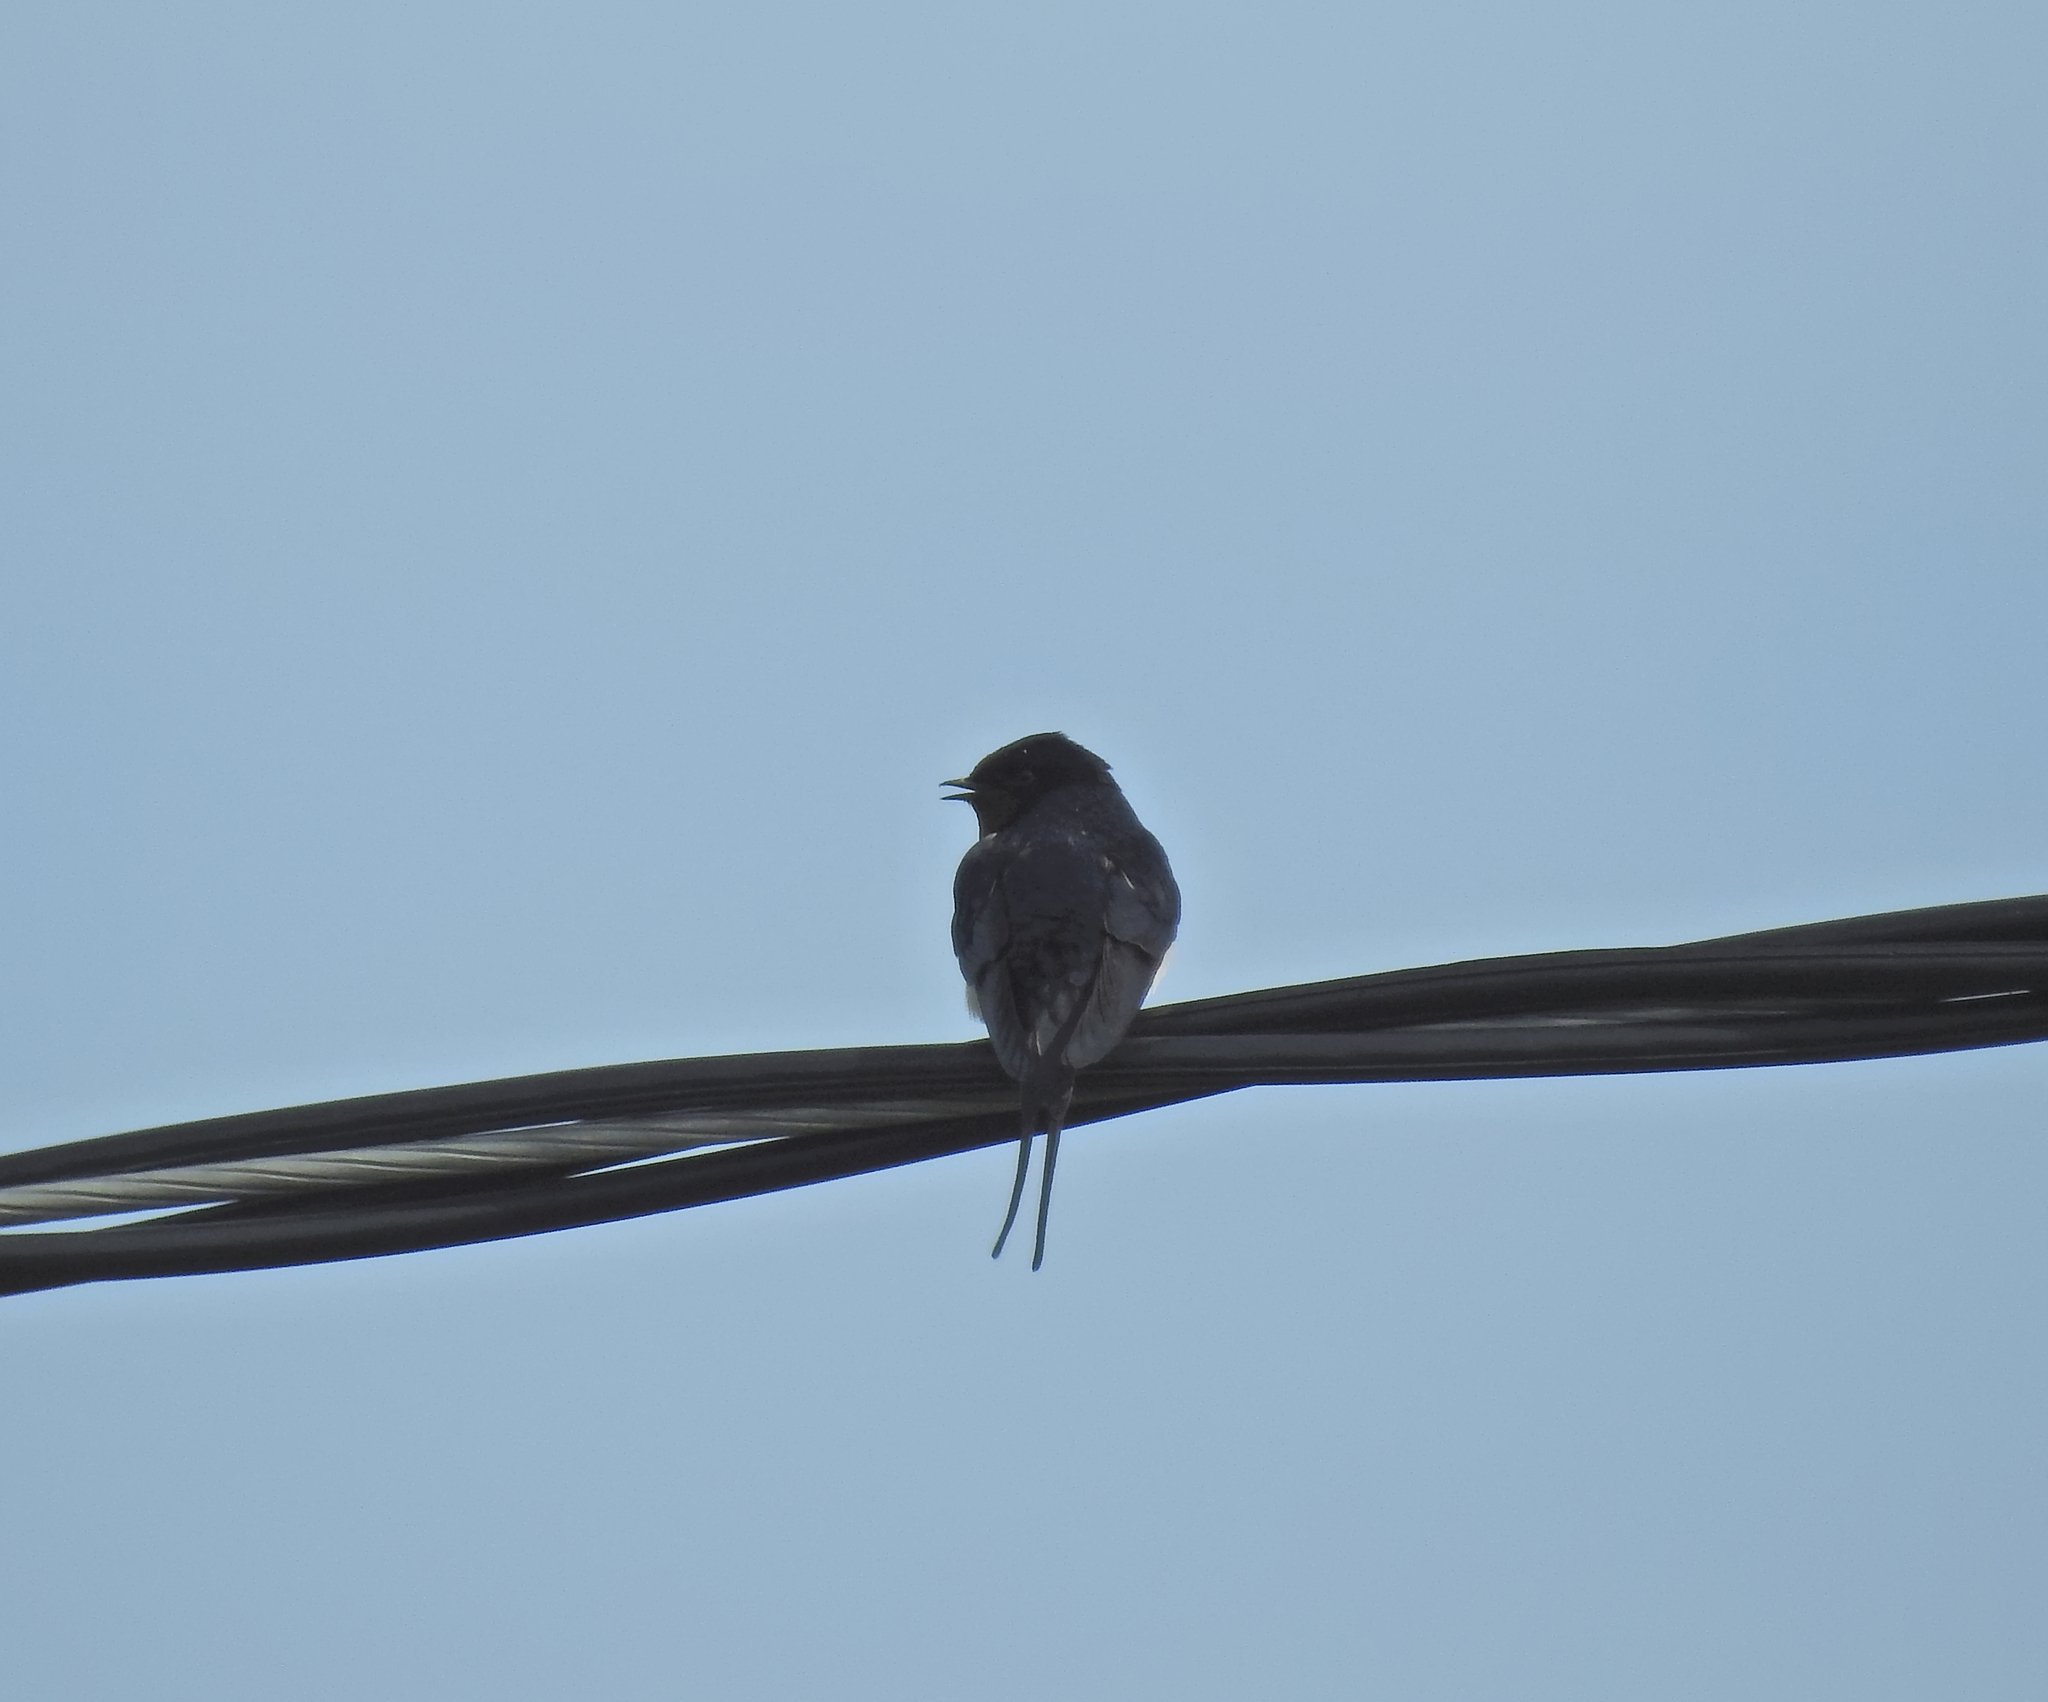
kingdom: Animalia
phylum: Chordata
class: Aves
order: Passeriformes
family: Hirundinidae
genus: Hirundo
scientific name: Hirundo rustica
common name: Barn swallow
